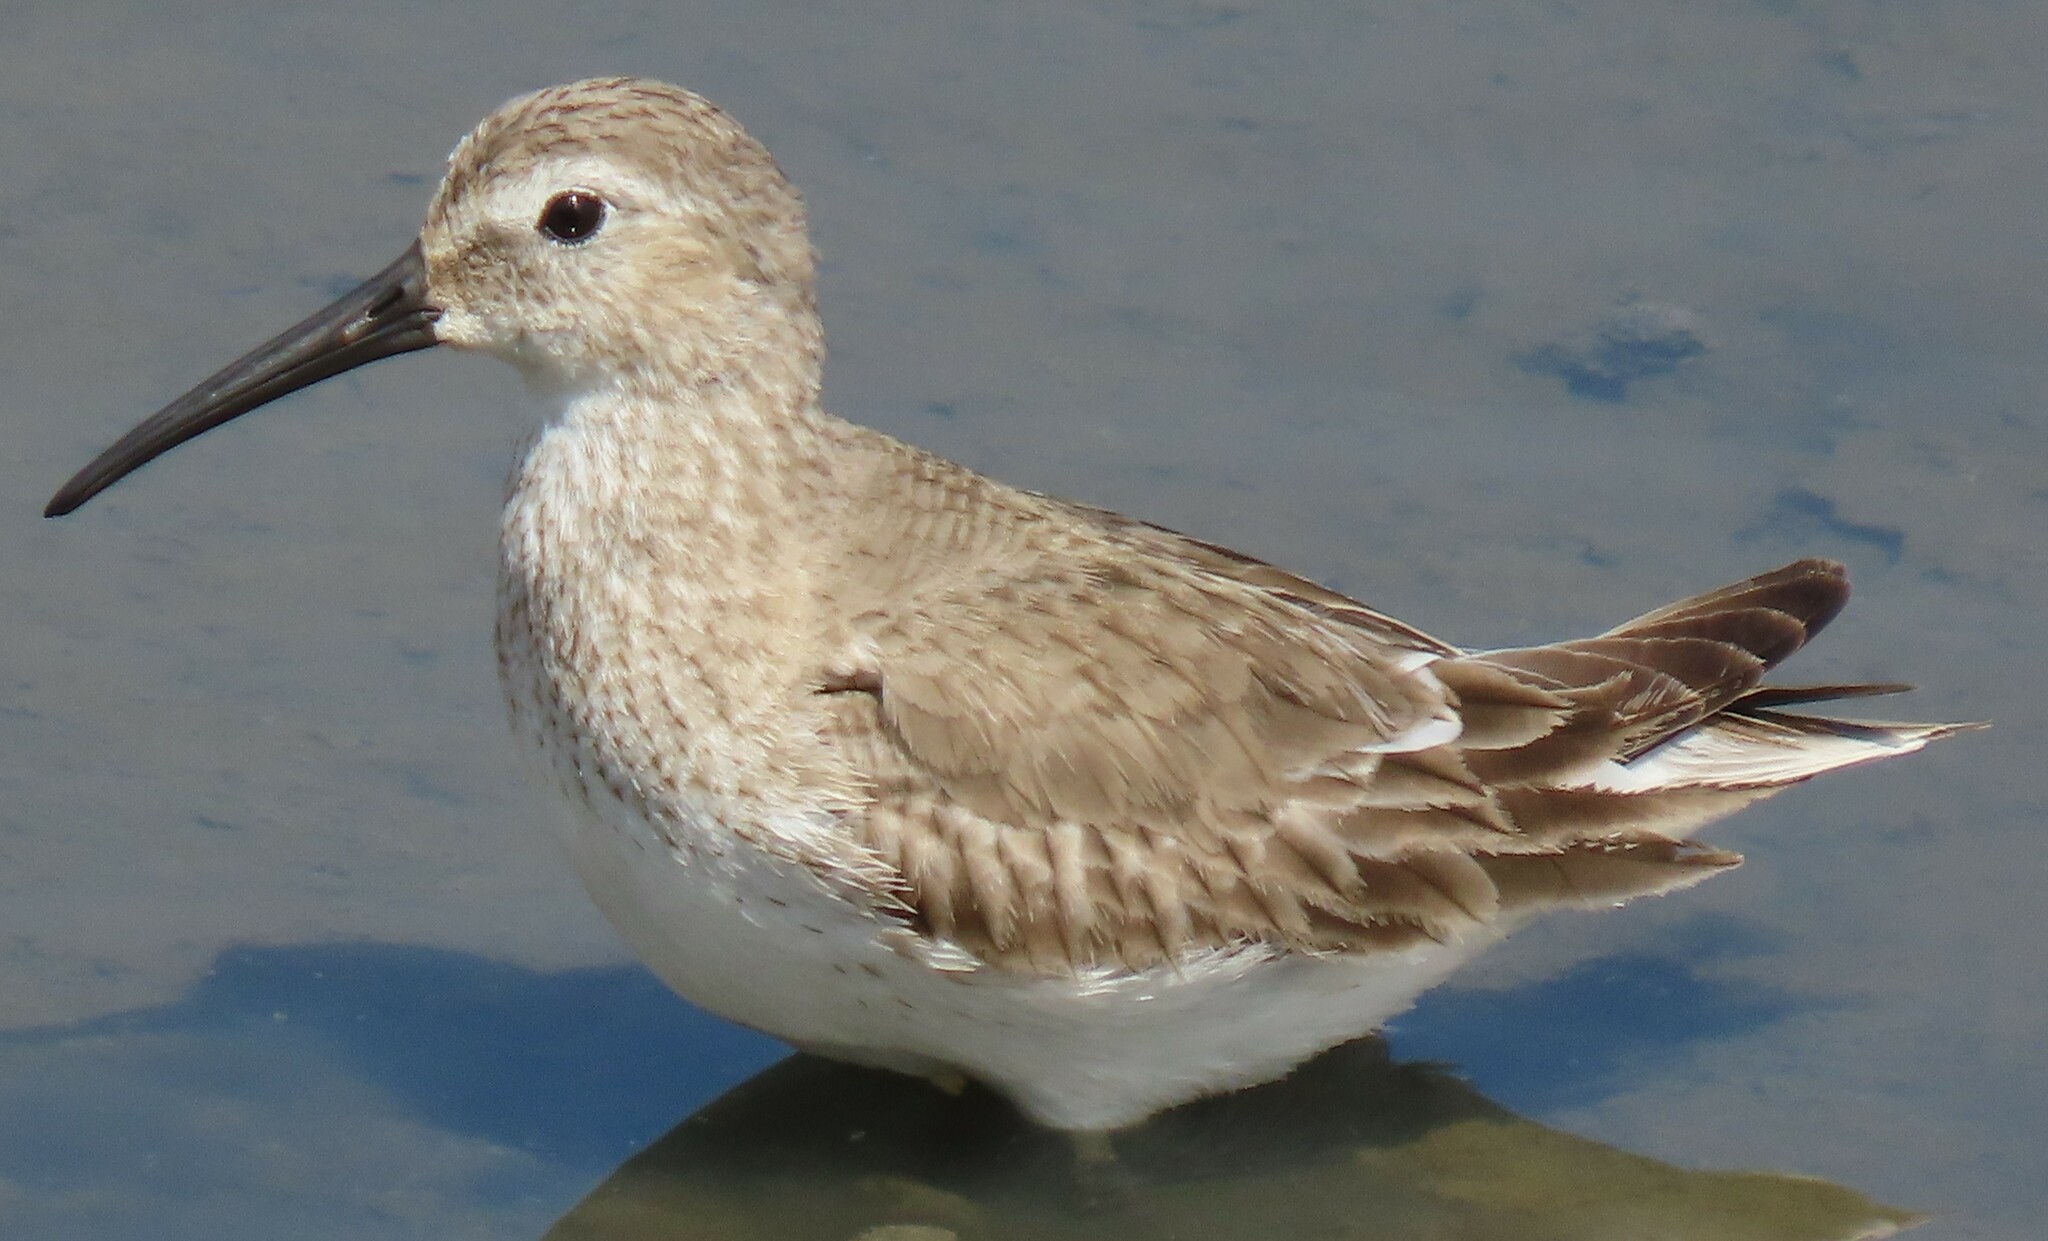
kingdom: Animalia
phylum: Chordata
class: Aves
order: Charadriiformes
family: Scolopacidae
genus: Calidris
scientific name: Calidris alpina
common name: Dunlin
